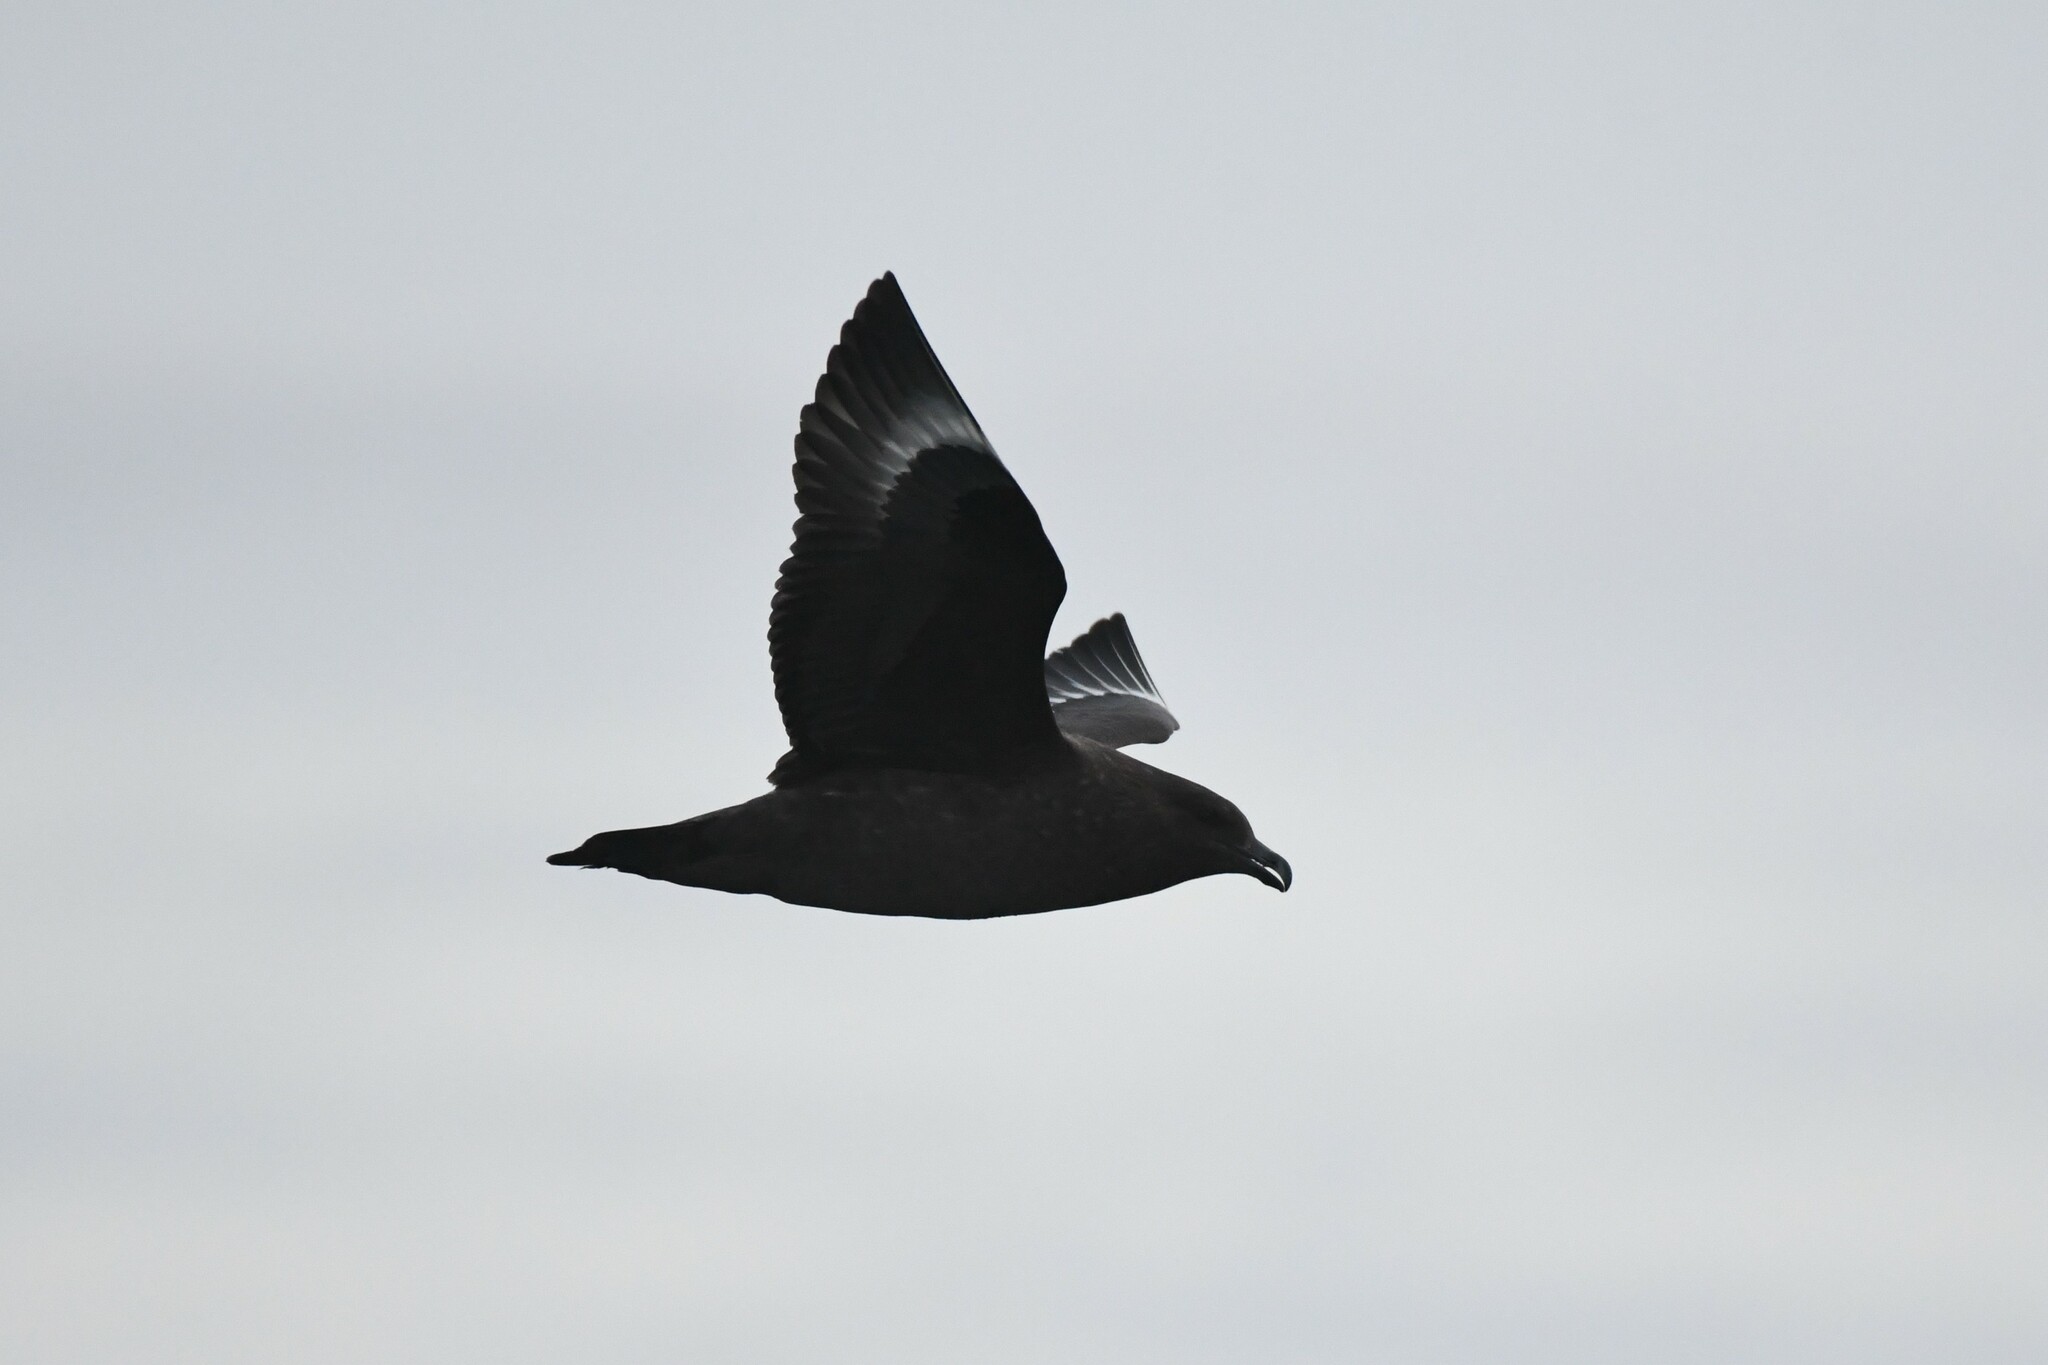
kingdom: Animalia
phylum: Chordata
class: Aves
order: Charadriiformes
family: Stercorariidae
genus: Stercorarius
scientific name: Stercorarius antarcticus
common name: Brown skua
